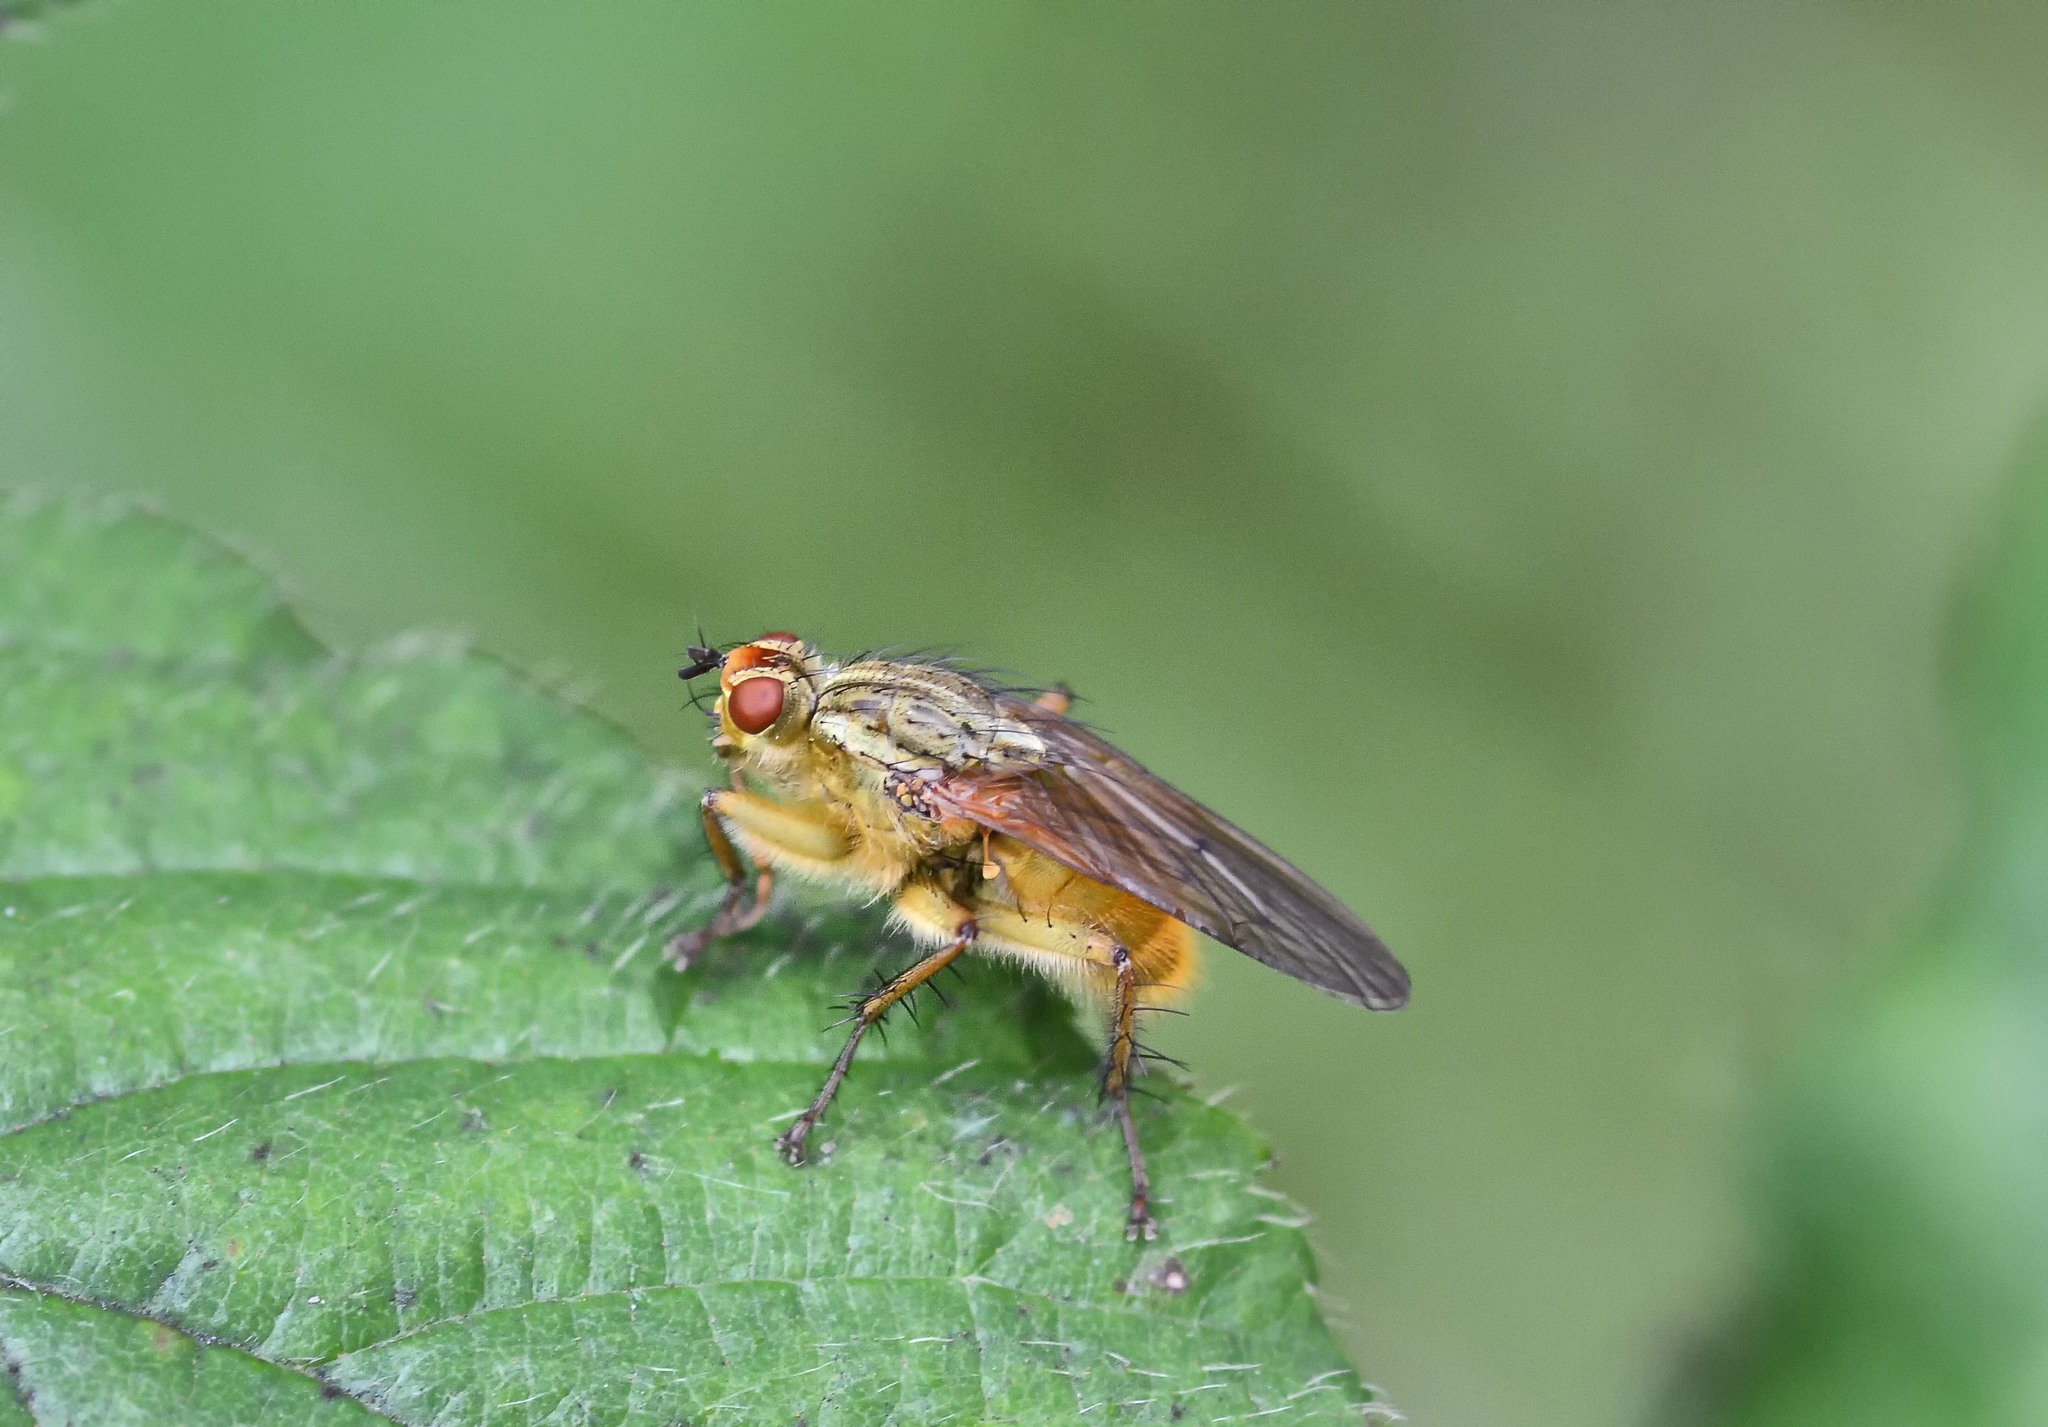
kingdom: Animalia
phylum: Arthropoda
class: Insecta
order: Diptera
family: Scathophagidae
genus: Scathophaga
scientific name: Scathophaga stercoraria
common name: Yellow dung fly
